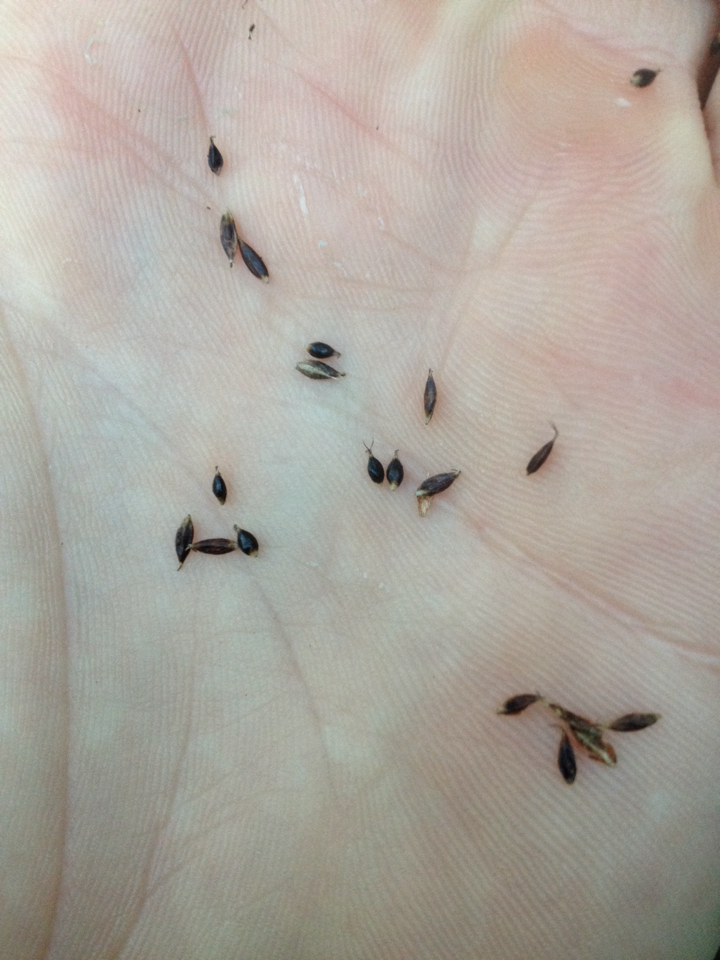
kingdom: Plantae
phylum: Tracheophyta
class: Liliopsida
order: Poales
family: Cyperaceae
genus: Carex
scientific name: Carex solandri
